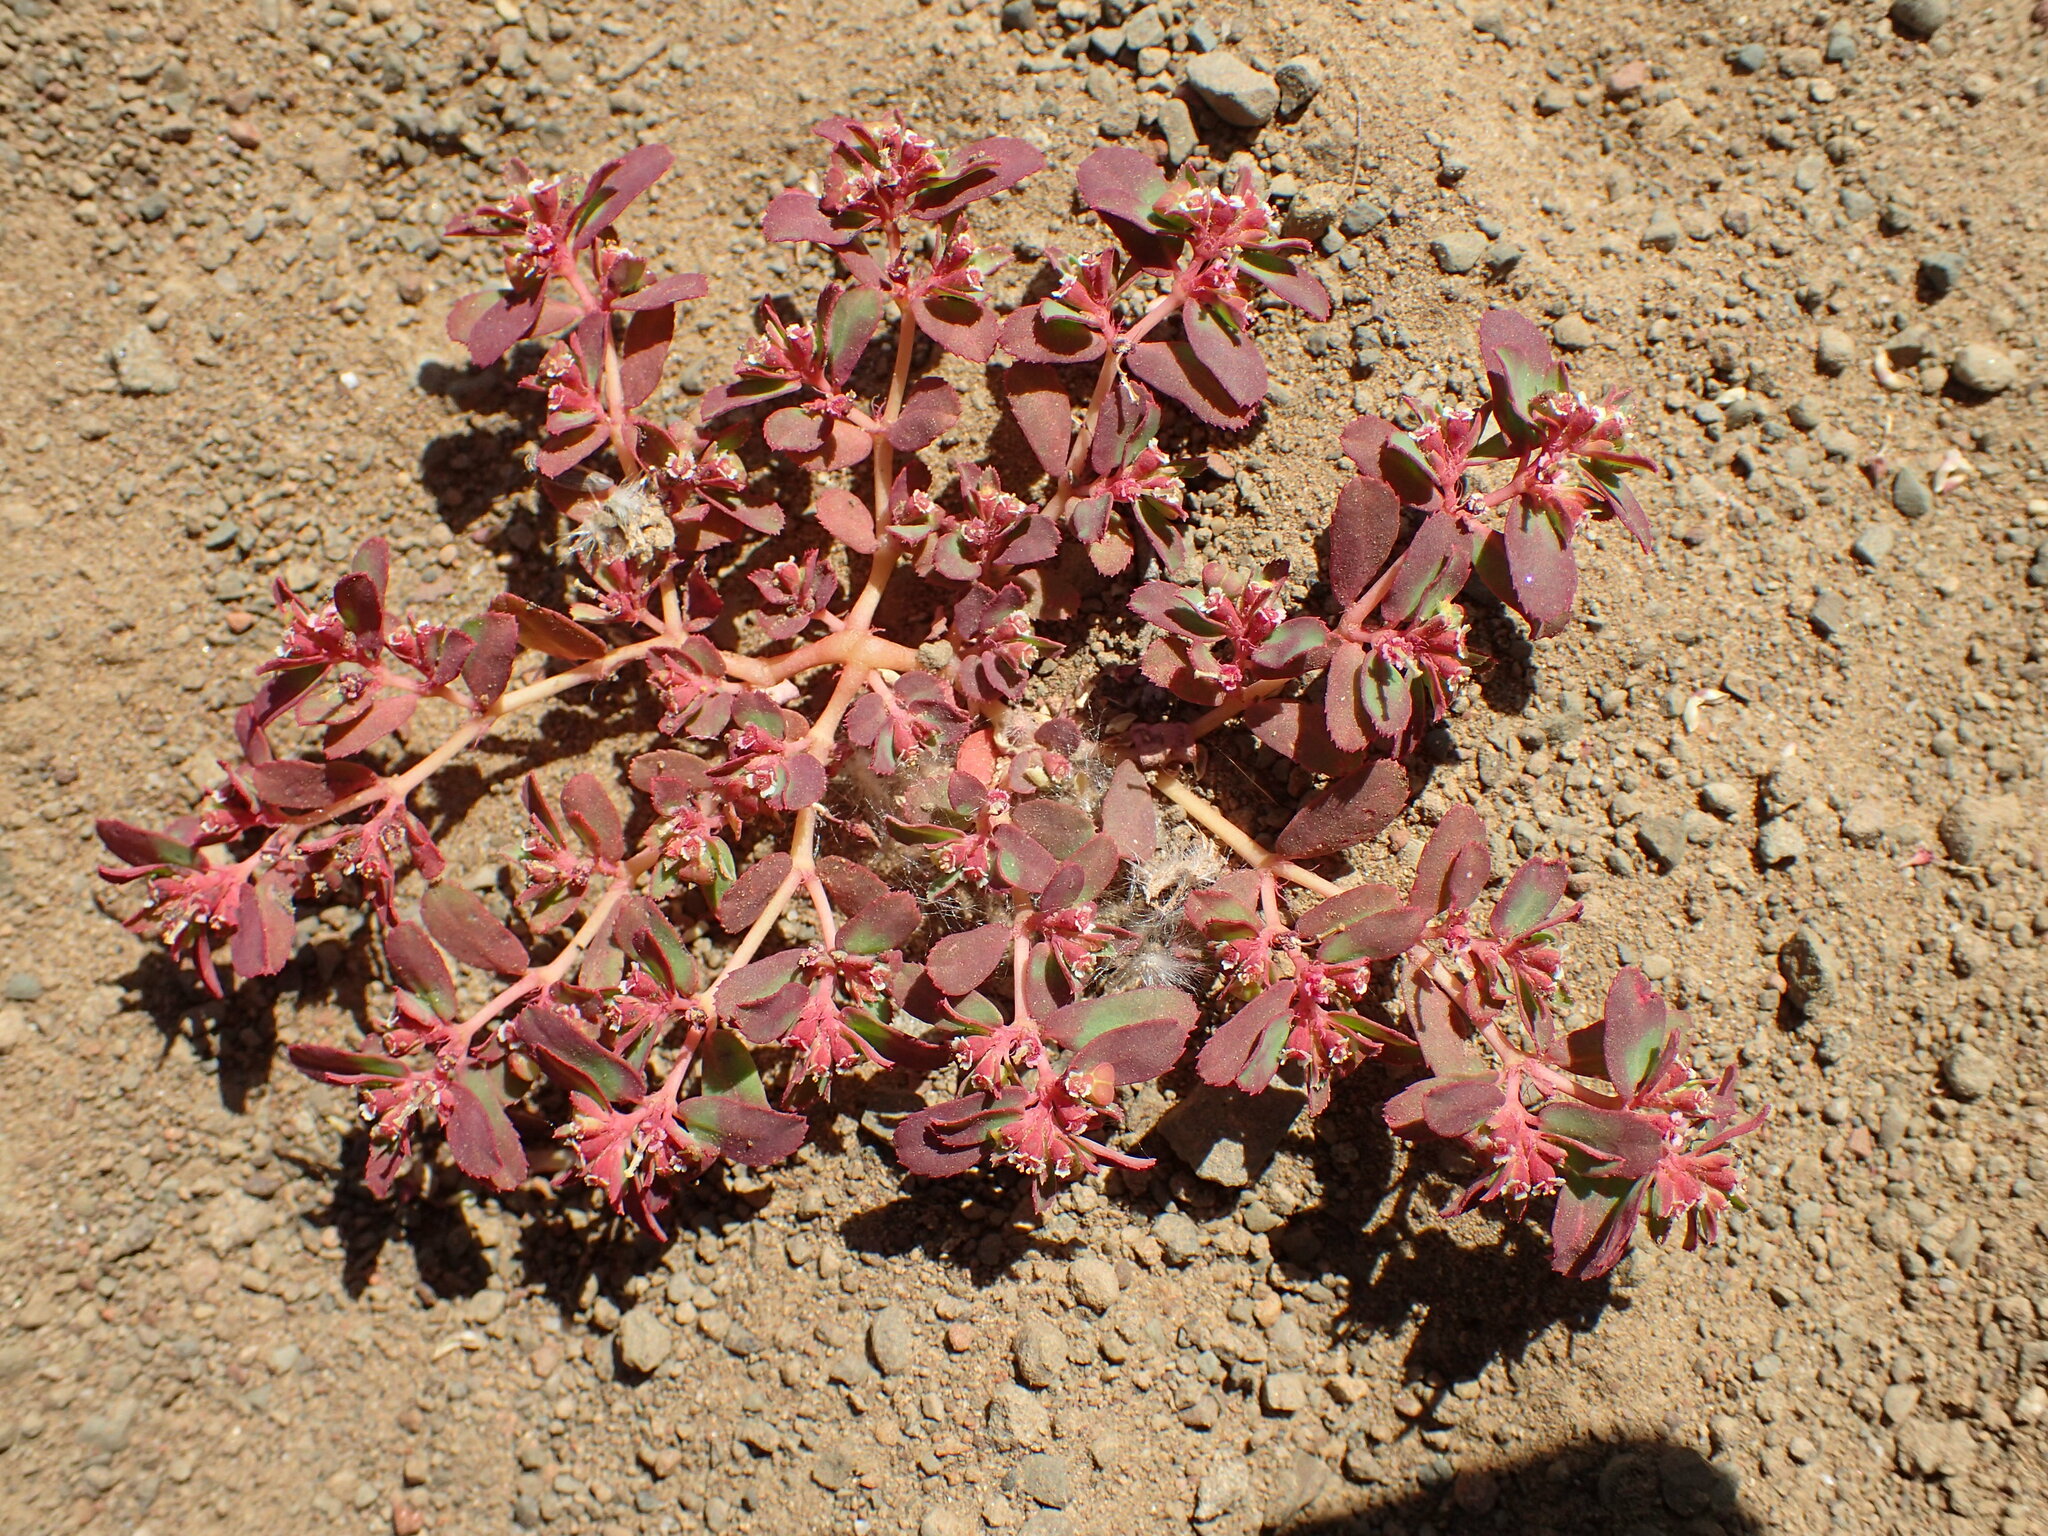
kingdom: Plantae
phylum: Tracheophyta
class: Magnoliopsida
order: Malpighiales
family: Euphorbiaceae
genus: Euphorbia
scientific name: Euphorbia serpillifolia
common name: Thyme-leaf spurge
